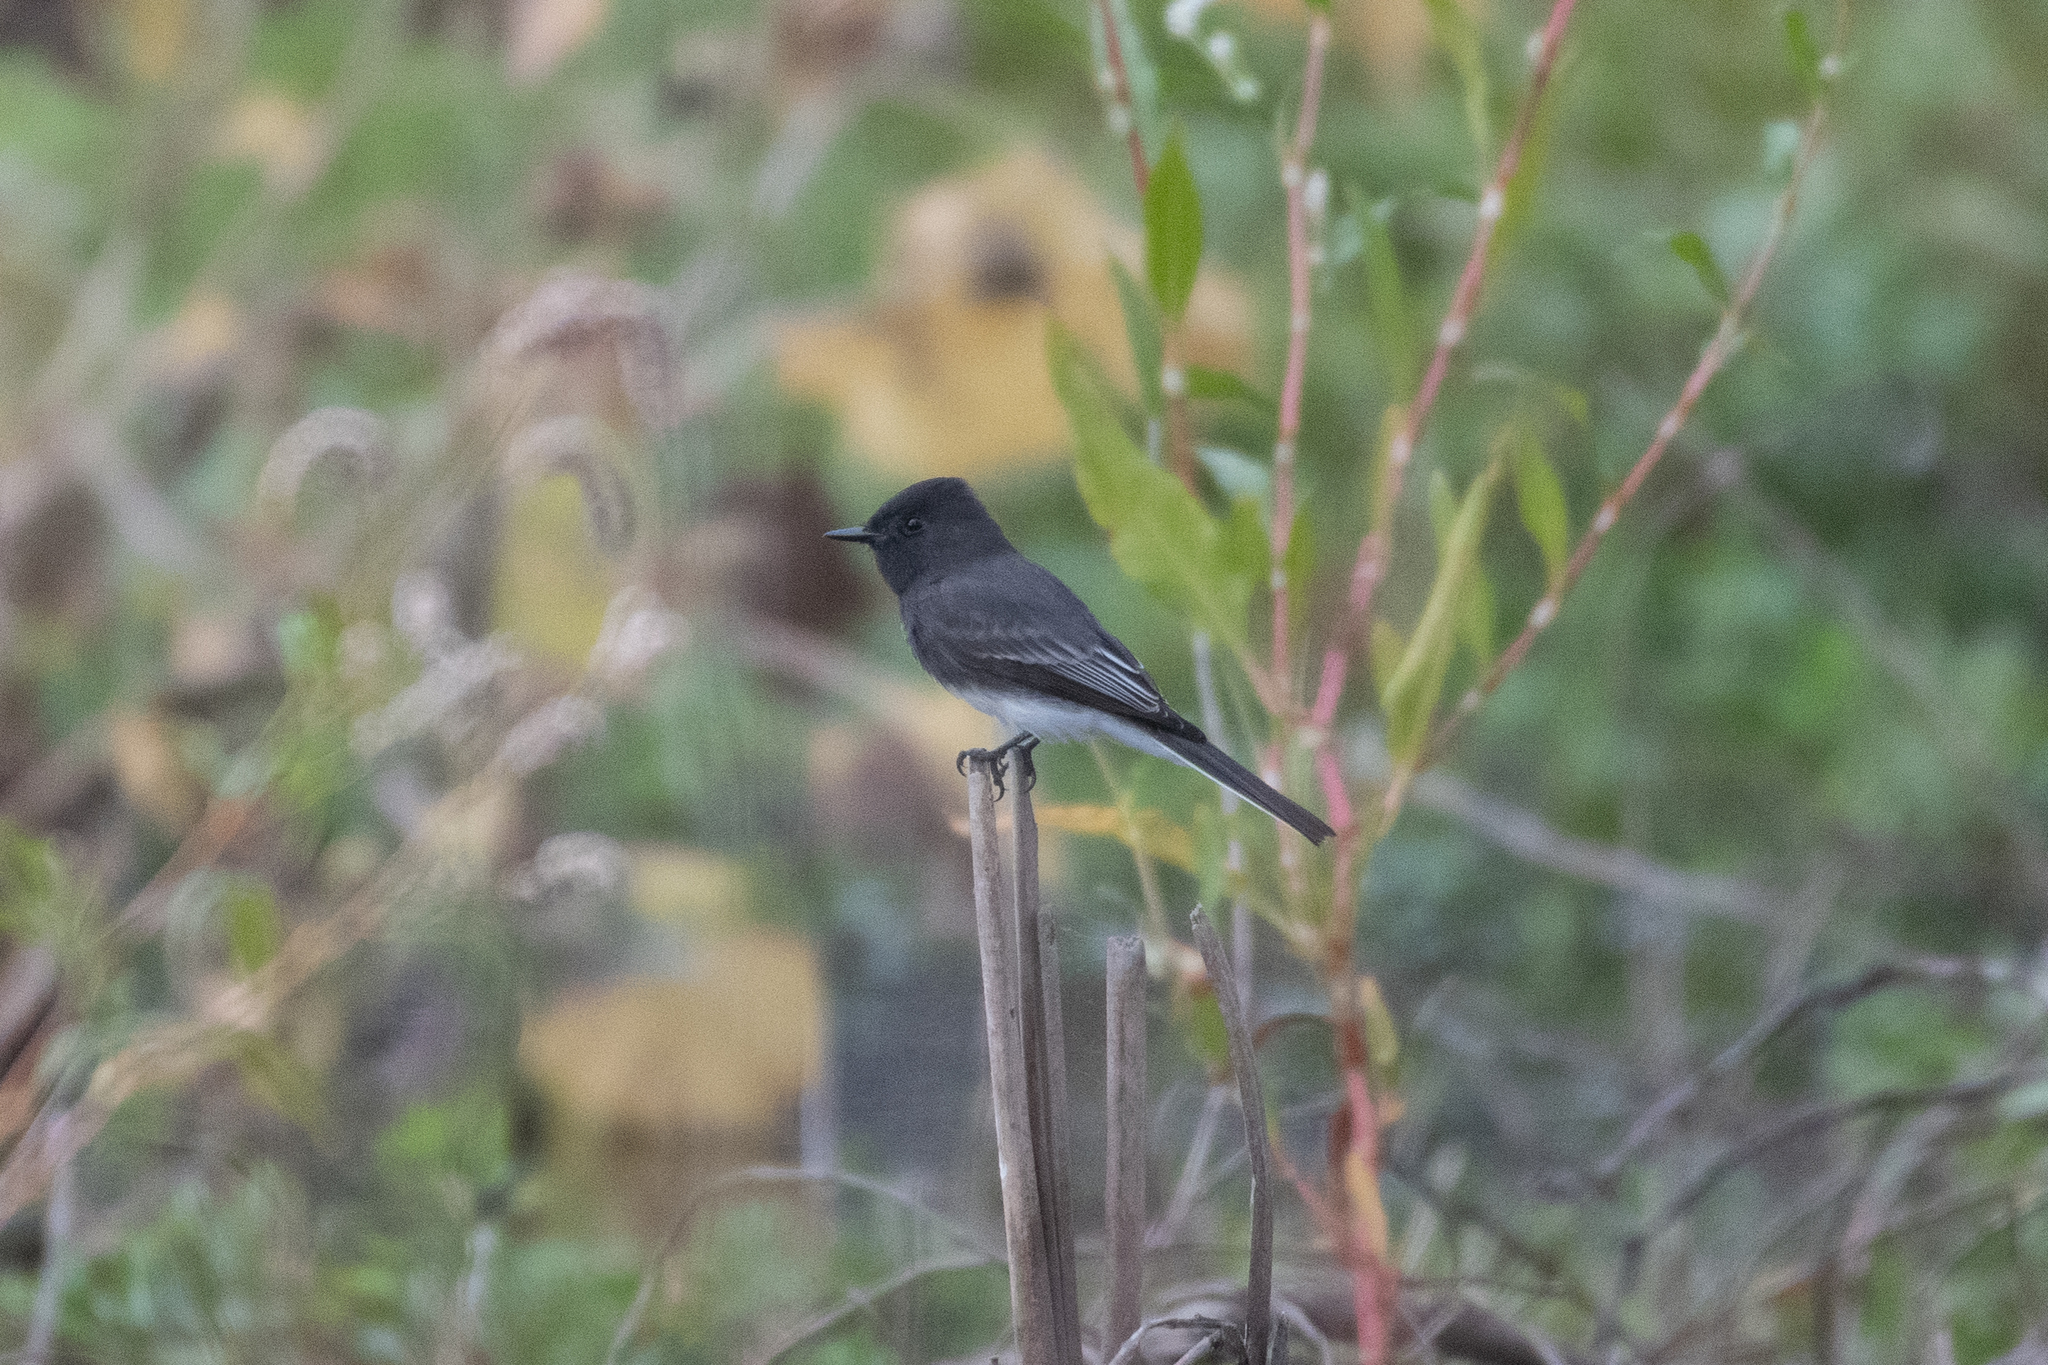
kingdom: Animalia
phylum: Chordata
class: Aves
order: Passeriformes
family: Tyrannidae
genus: Sayornis
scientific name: Sayornis nigricans
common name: Black phoebe
